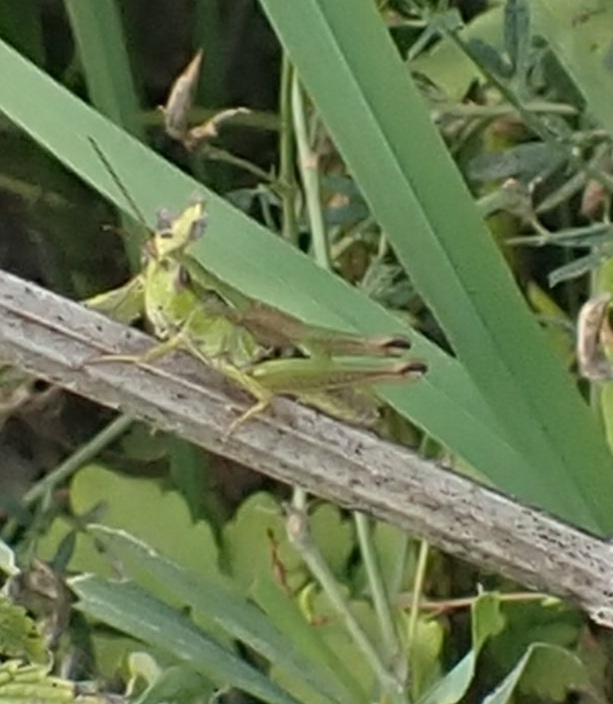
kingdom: Animalia
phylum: Arthropoda
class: Insecta
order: Orthoptera
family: Acrididae
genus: Chorthippus
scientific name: Chorthippus fallax
